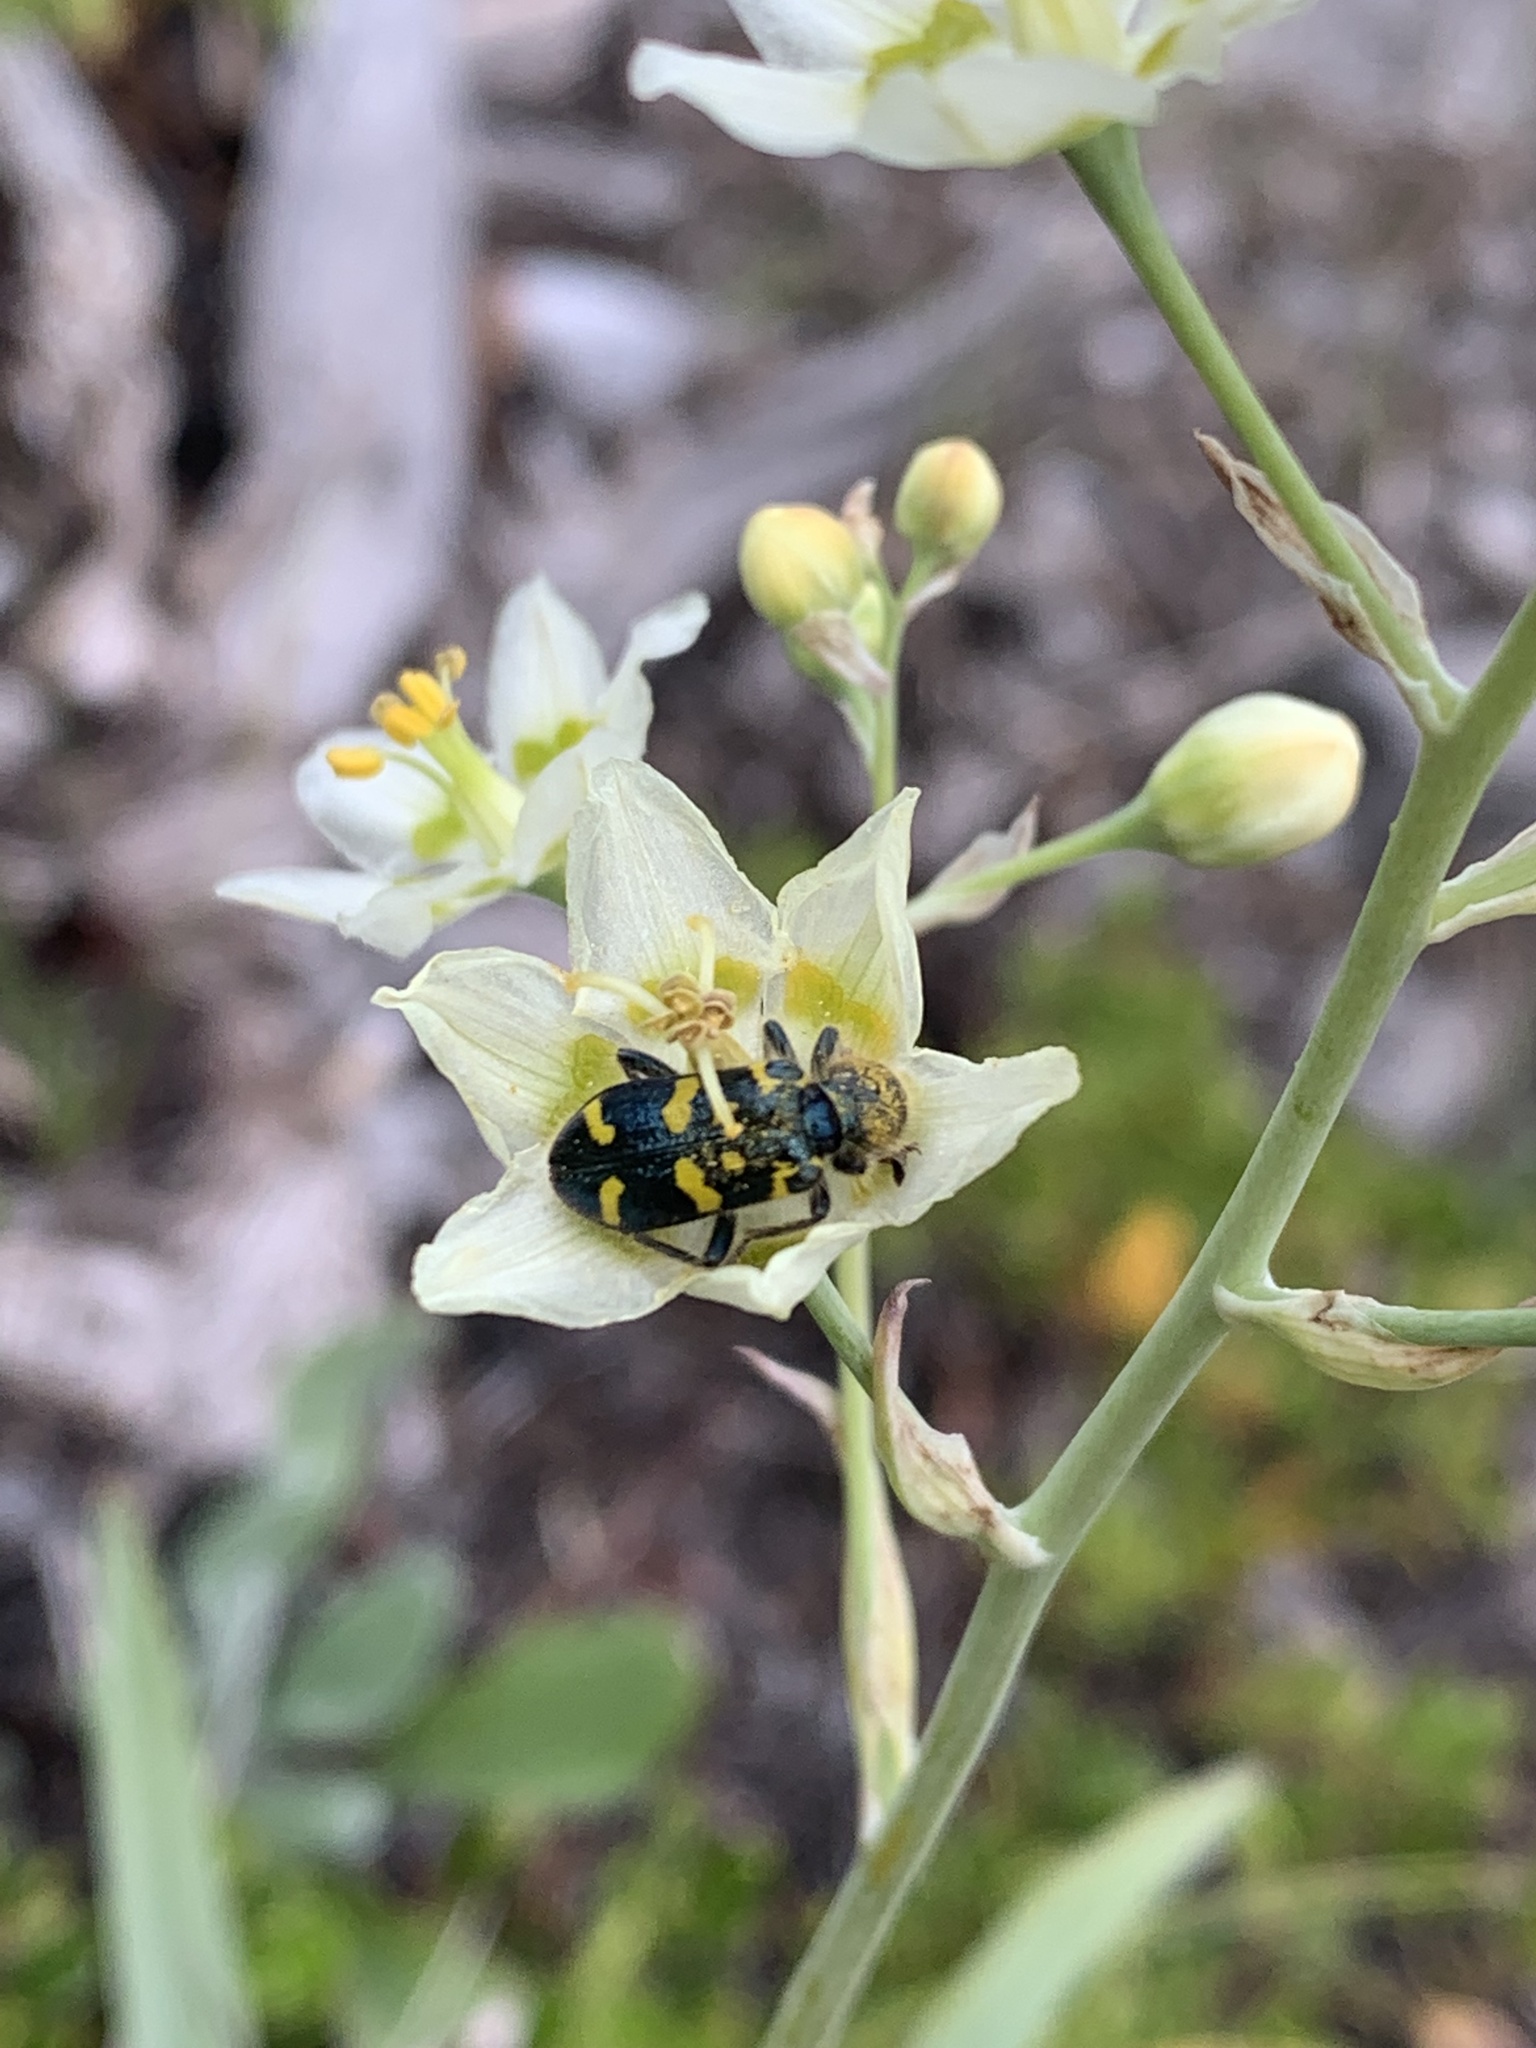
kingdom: Animalia
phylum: Arthropoda
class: Insecta
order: Coleoptera
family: Cleridae
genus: Trichodes
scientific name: Trichodes ornatus
